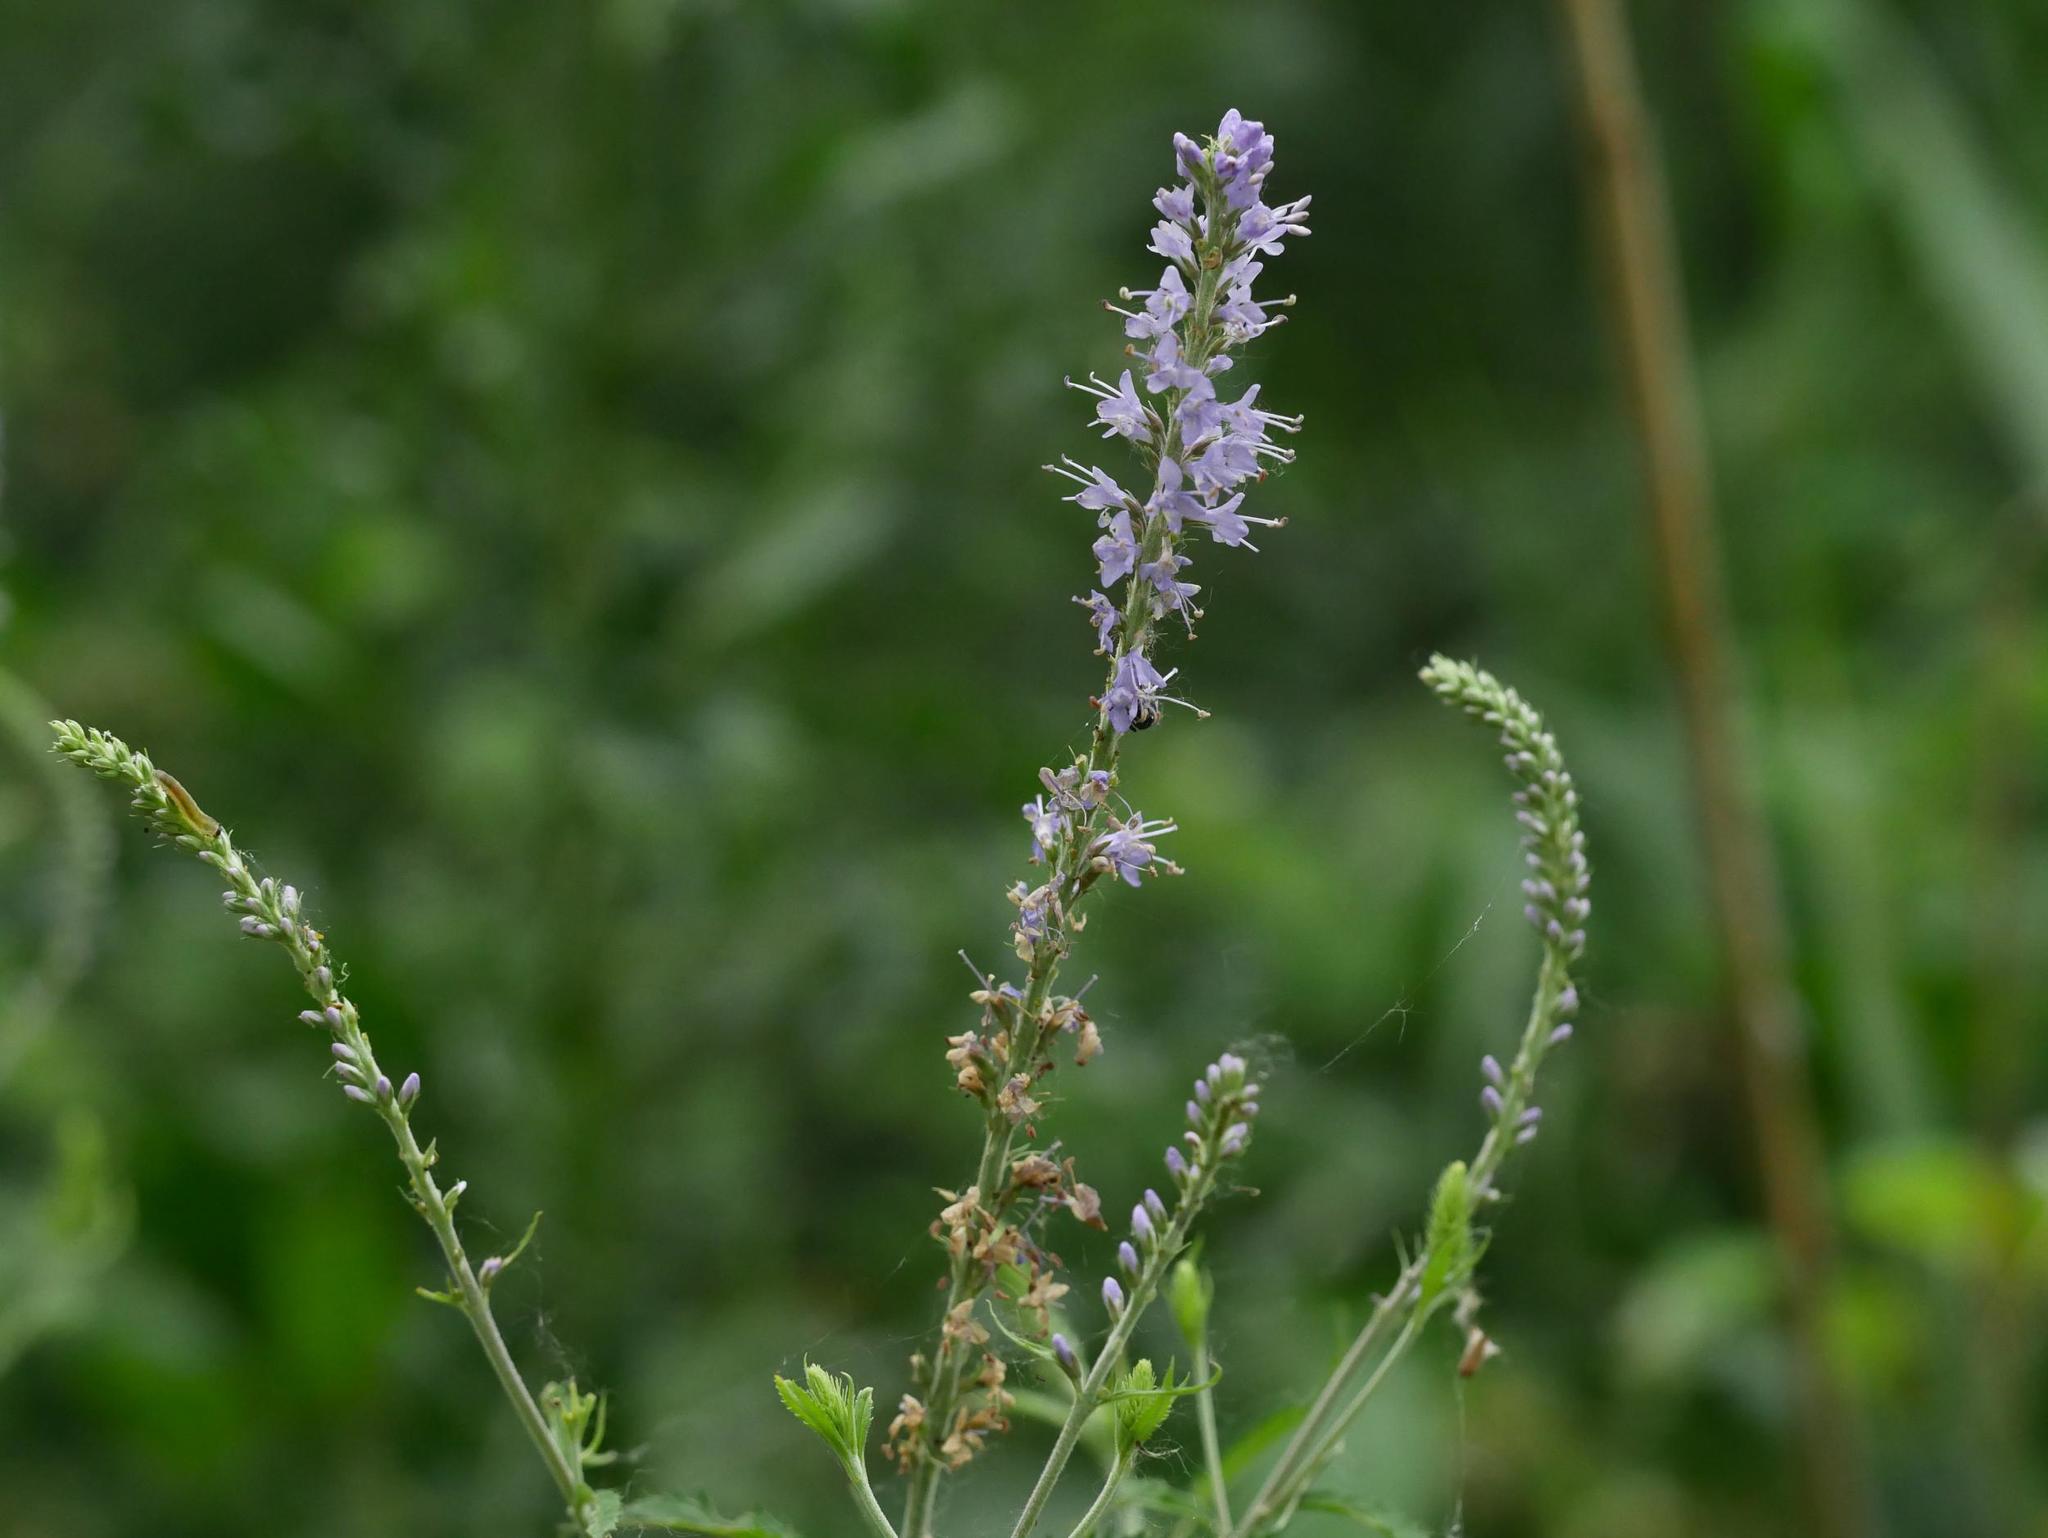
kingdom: Plantae
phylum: Tracheophyta
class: Magnoliopsida
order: Lamiales
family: Plantaginaceae
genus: Veronica
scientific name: Veronica longifolia
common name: Garden speedwell
